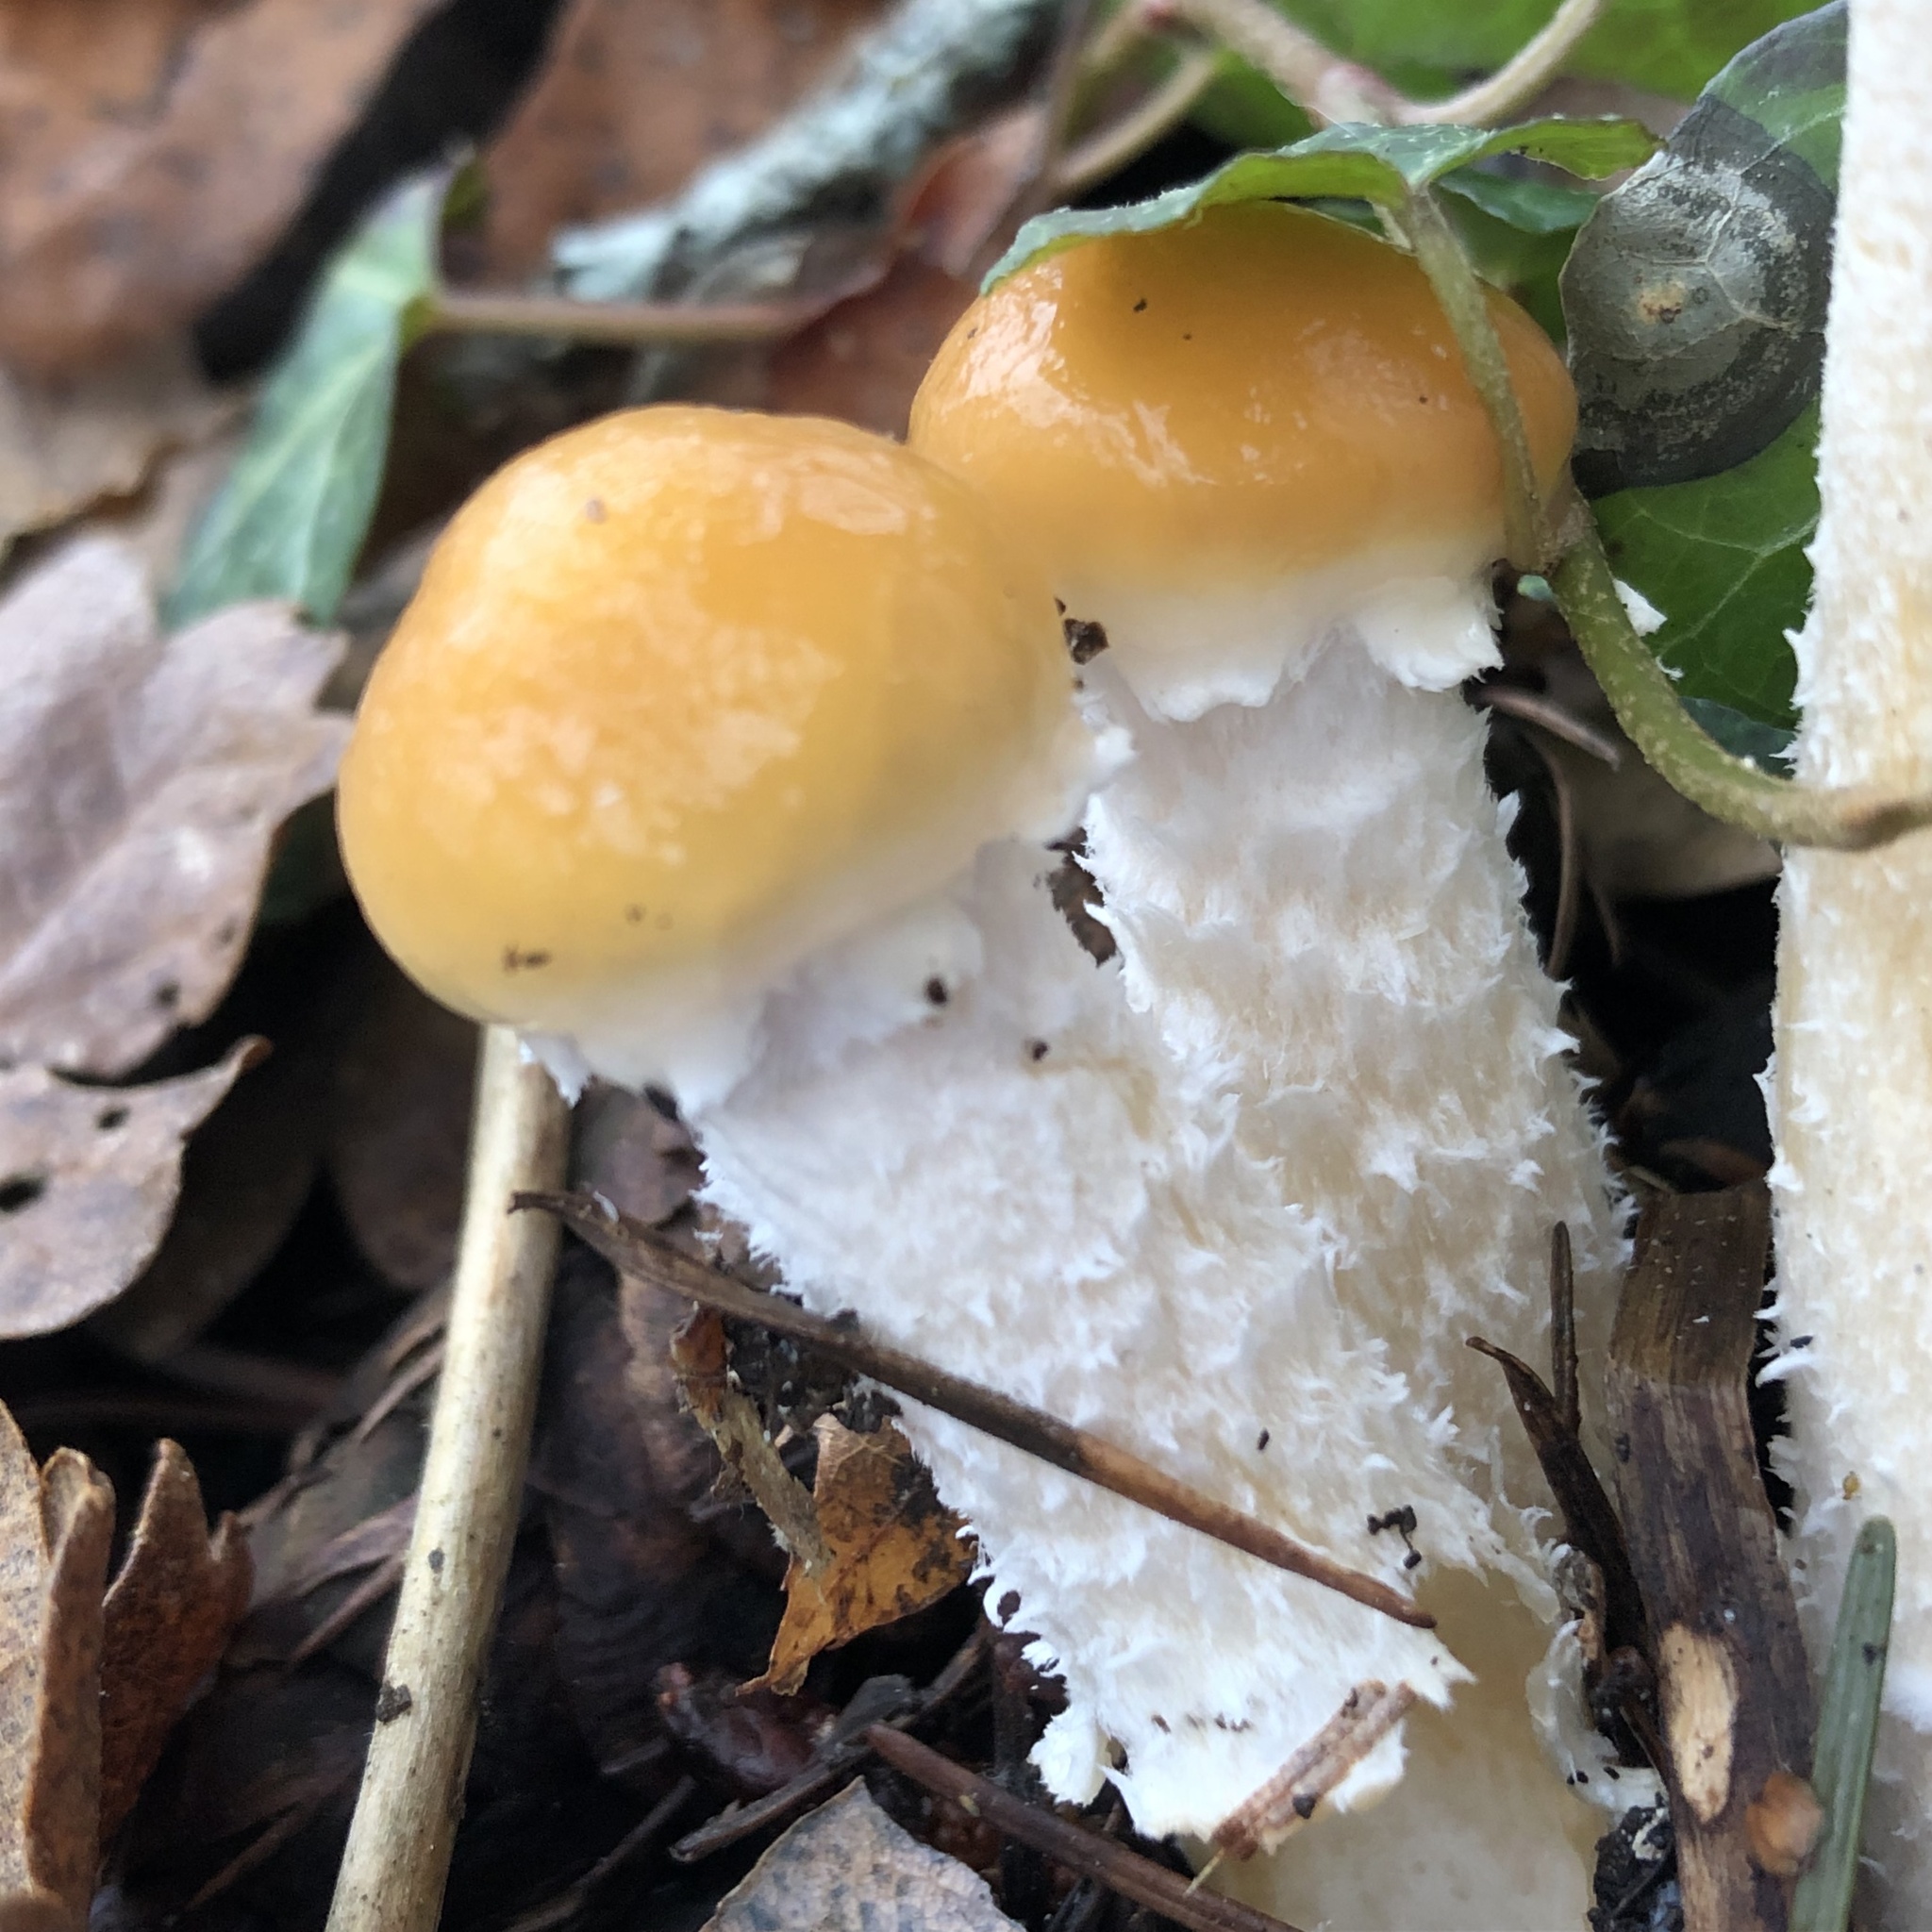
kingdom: Fungi
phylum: Basidiomycota
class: Agaricomycetes
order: Agaricales
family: Strophariaceae
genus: Stropharia
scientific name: Stropharia ambigua
